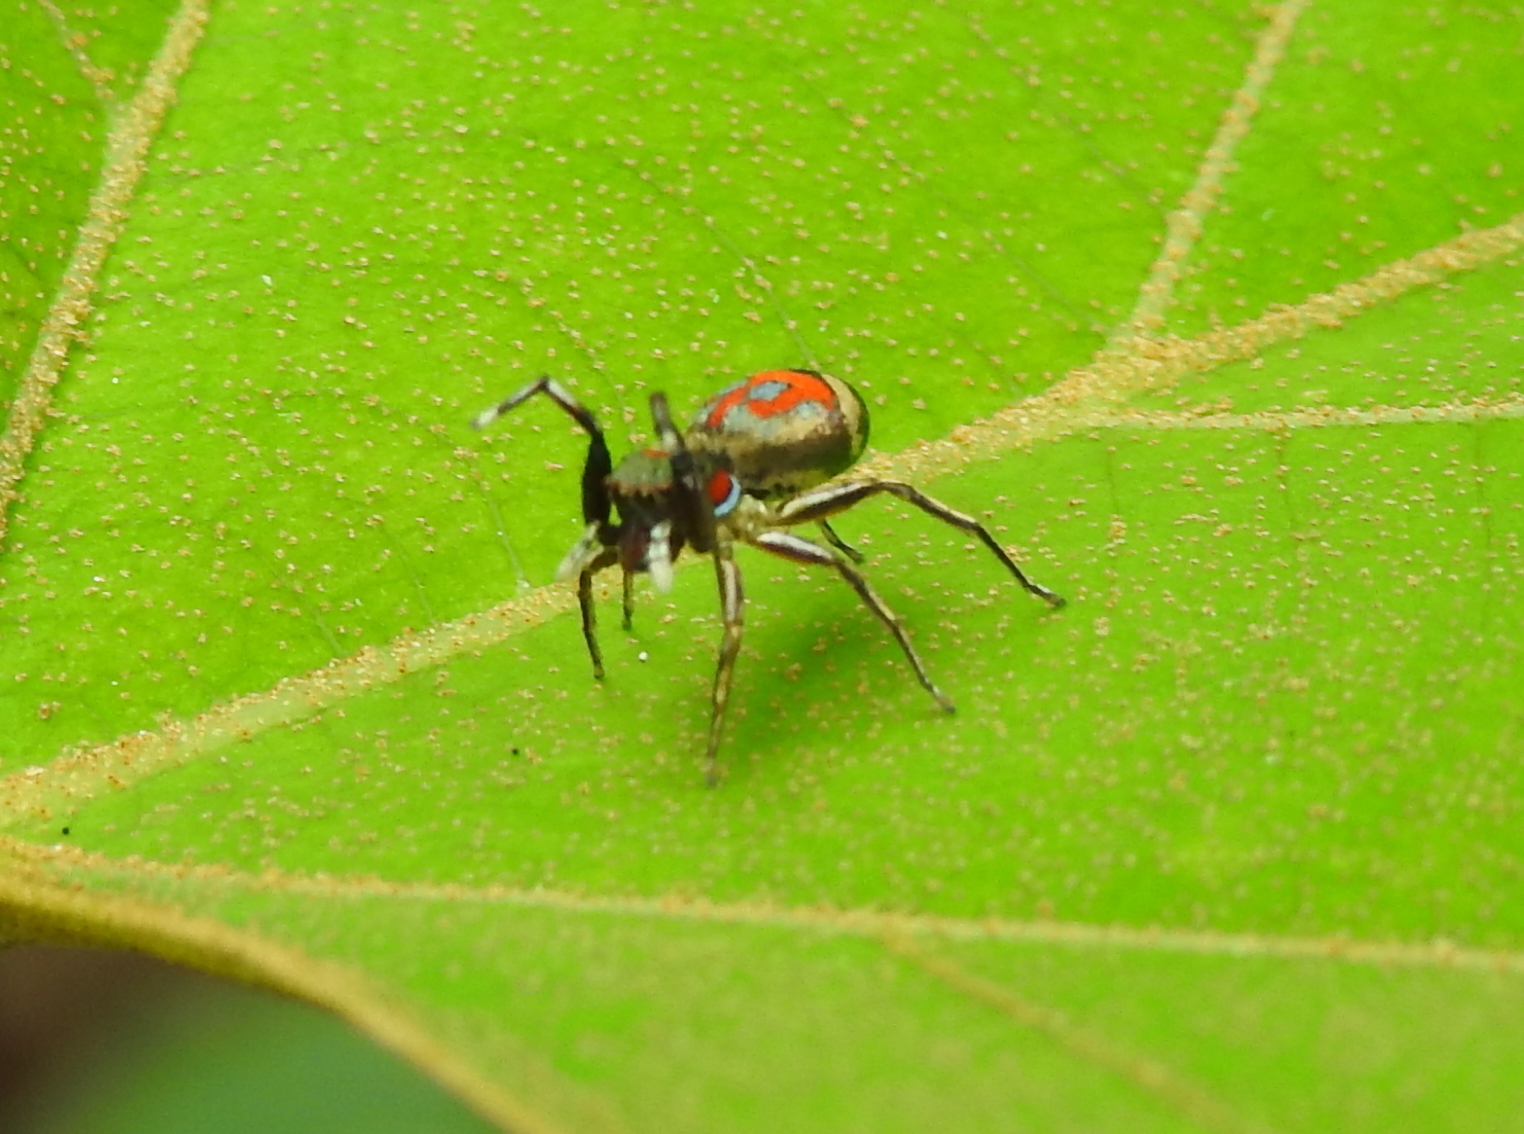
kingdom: Animalia
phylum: Arthropoda
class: Arachnida
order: Araneae
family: Salticidae
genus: Siler
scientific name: Siler semiglaucus
